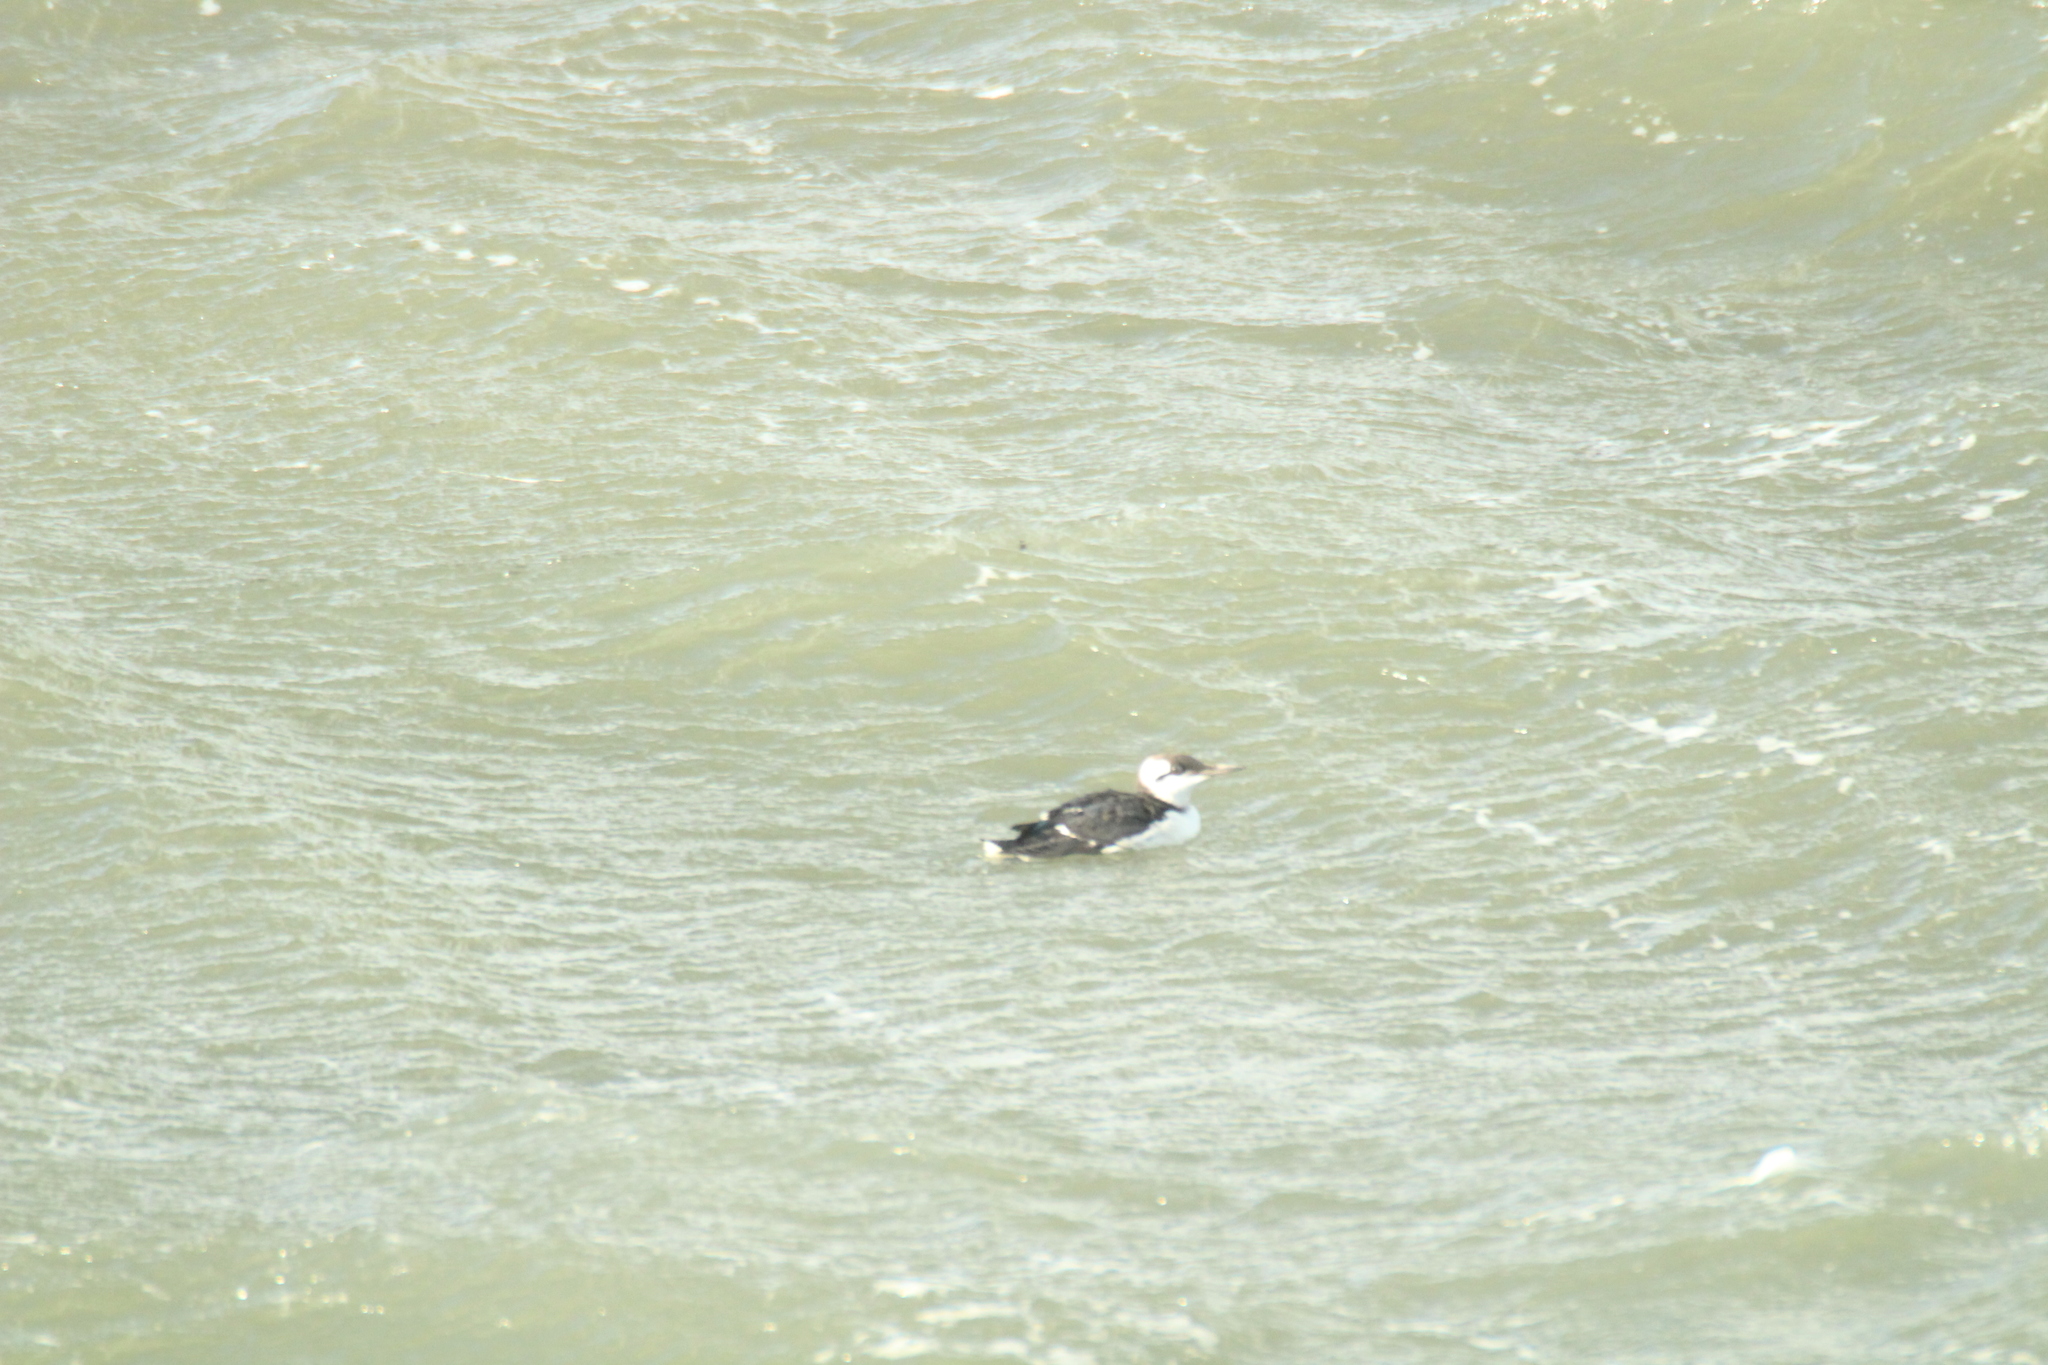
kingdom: Animalia
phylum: Chordata
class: Aves
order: Charadriiformes
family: Alcidae
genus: Uria
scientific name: Uria aalge
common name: Common murre
